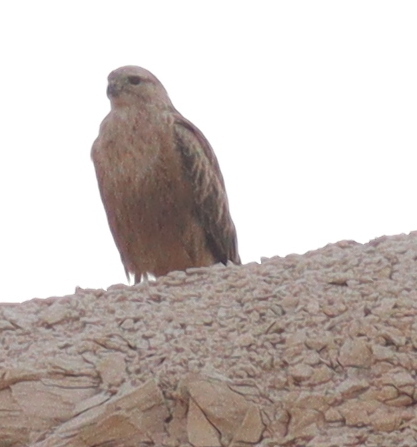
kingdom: Animalia
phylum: Chordata
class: Aves
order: Accipitriformes
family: Accipitridae
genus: Buteo
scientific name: Buteo rufinus
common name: Long-legged buzzard
